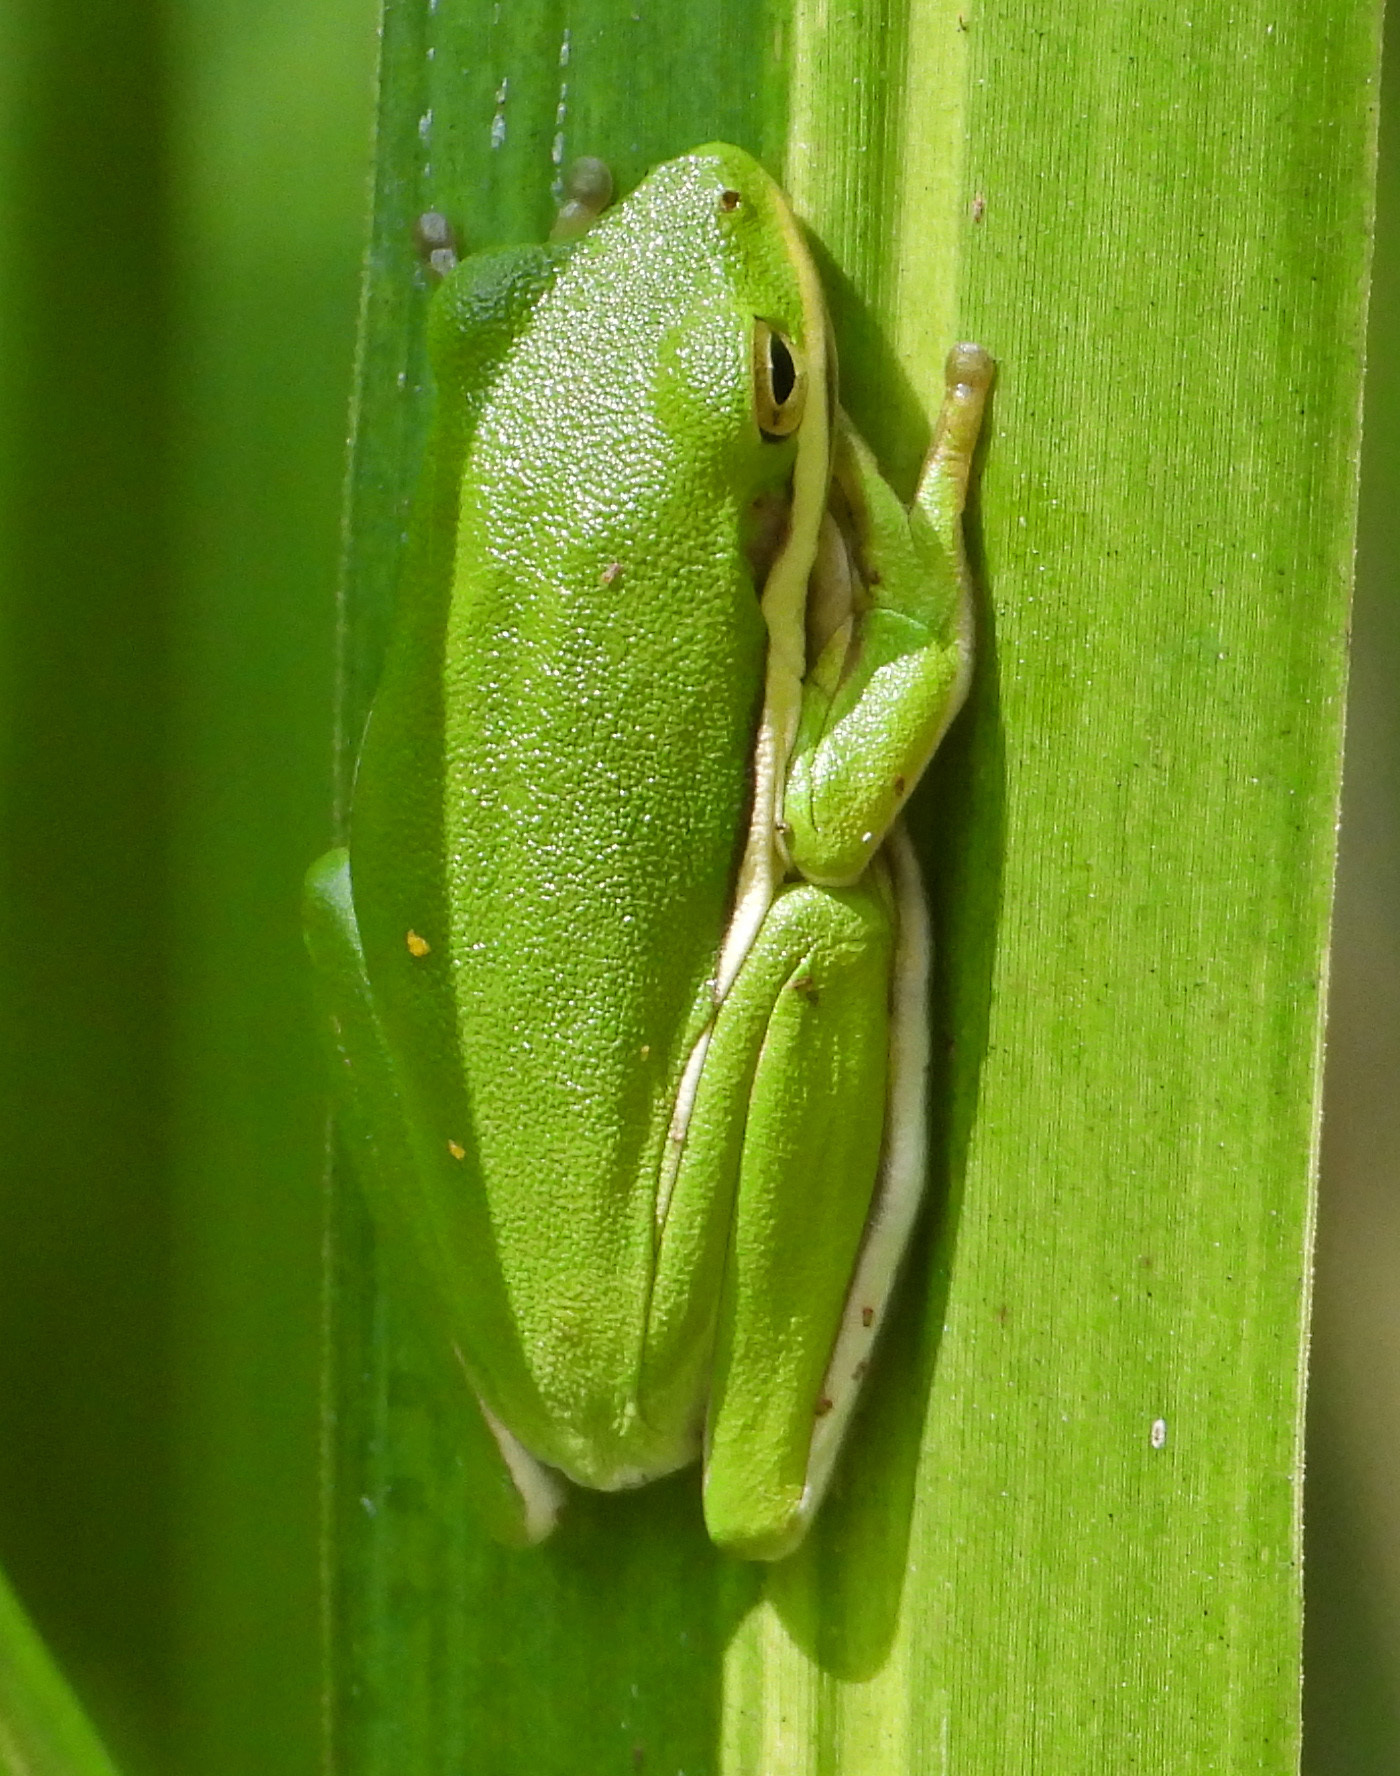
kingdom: Animalia
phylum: Chordata
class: Amphibia
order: Anura
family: Hylidae
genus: Dryophytes
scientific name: Dryophytes cinereus
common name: Green treefrog
